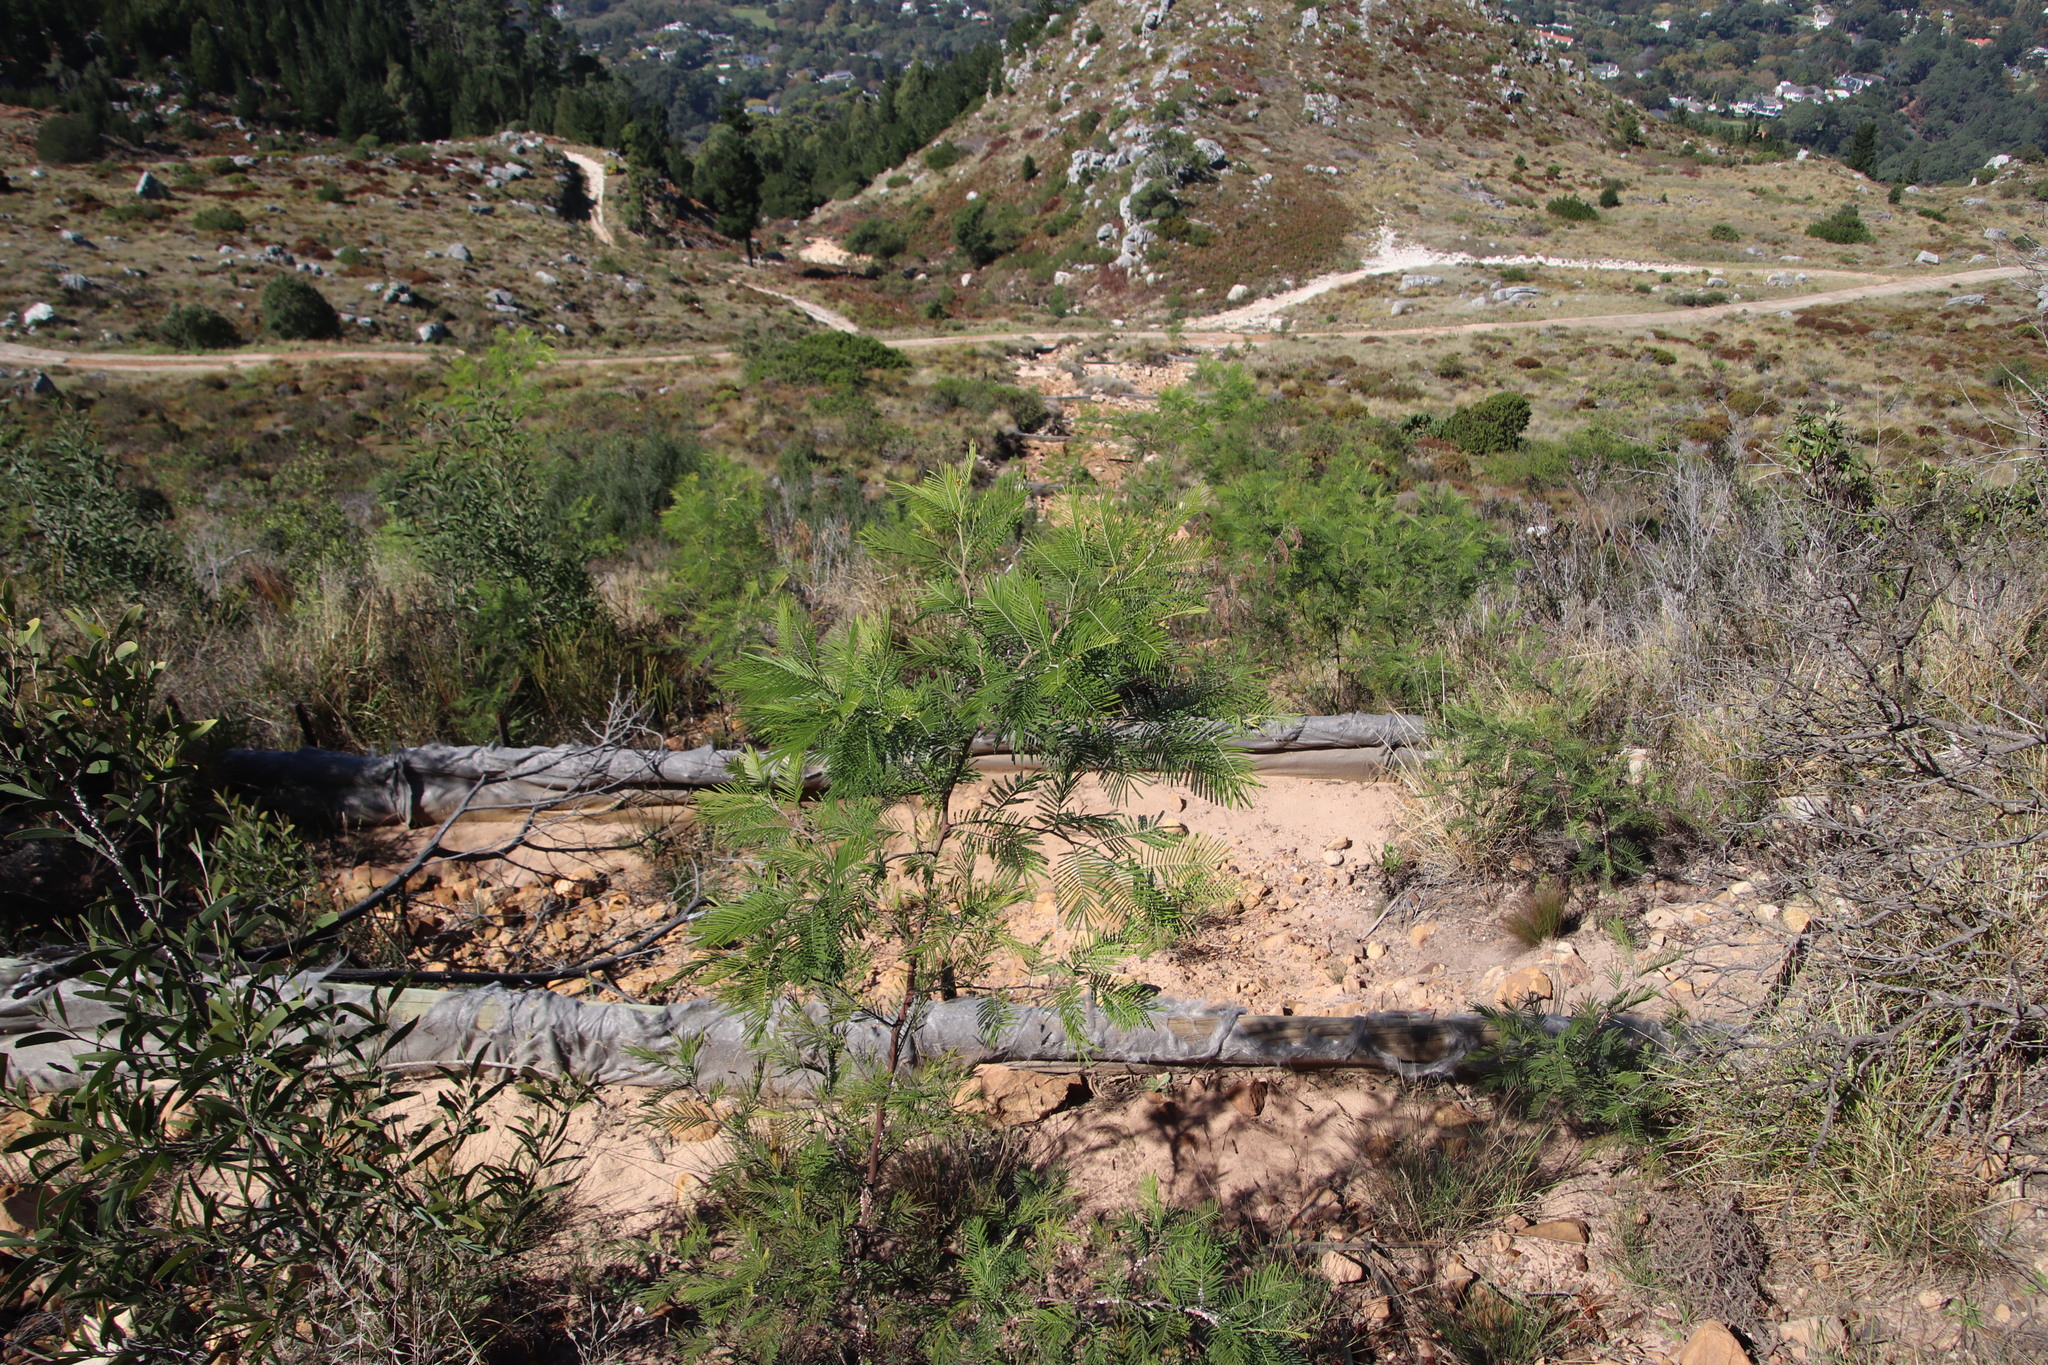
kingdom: Plantae
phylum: Tracheophyta
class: Magnoliopsida
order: Fabales
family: Fabaceae
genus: Acacia
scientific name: Acacia mearnsii
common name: Black wattle
